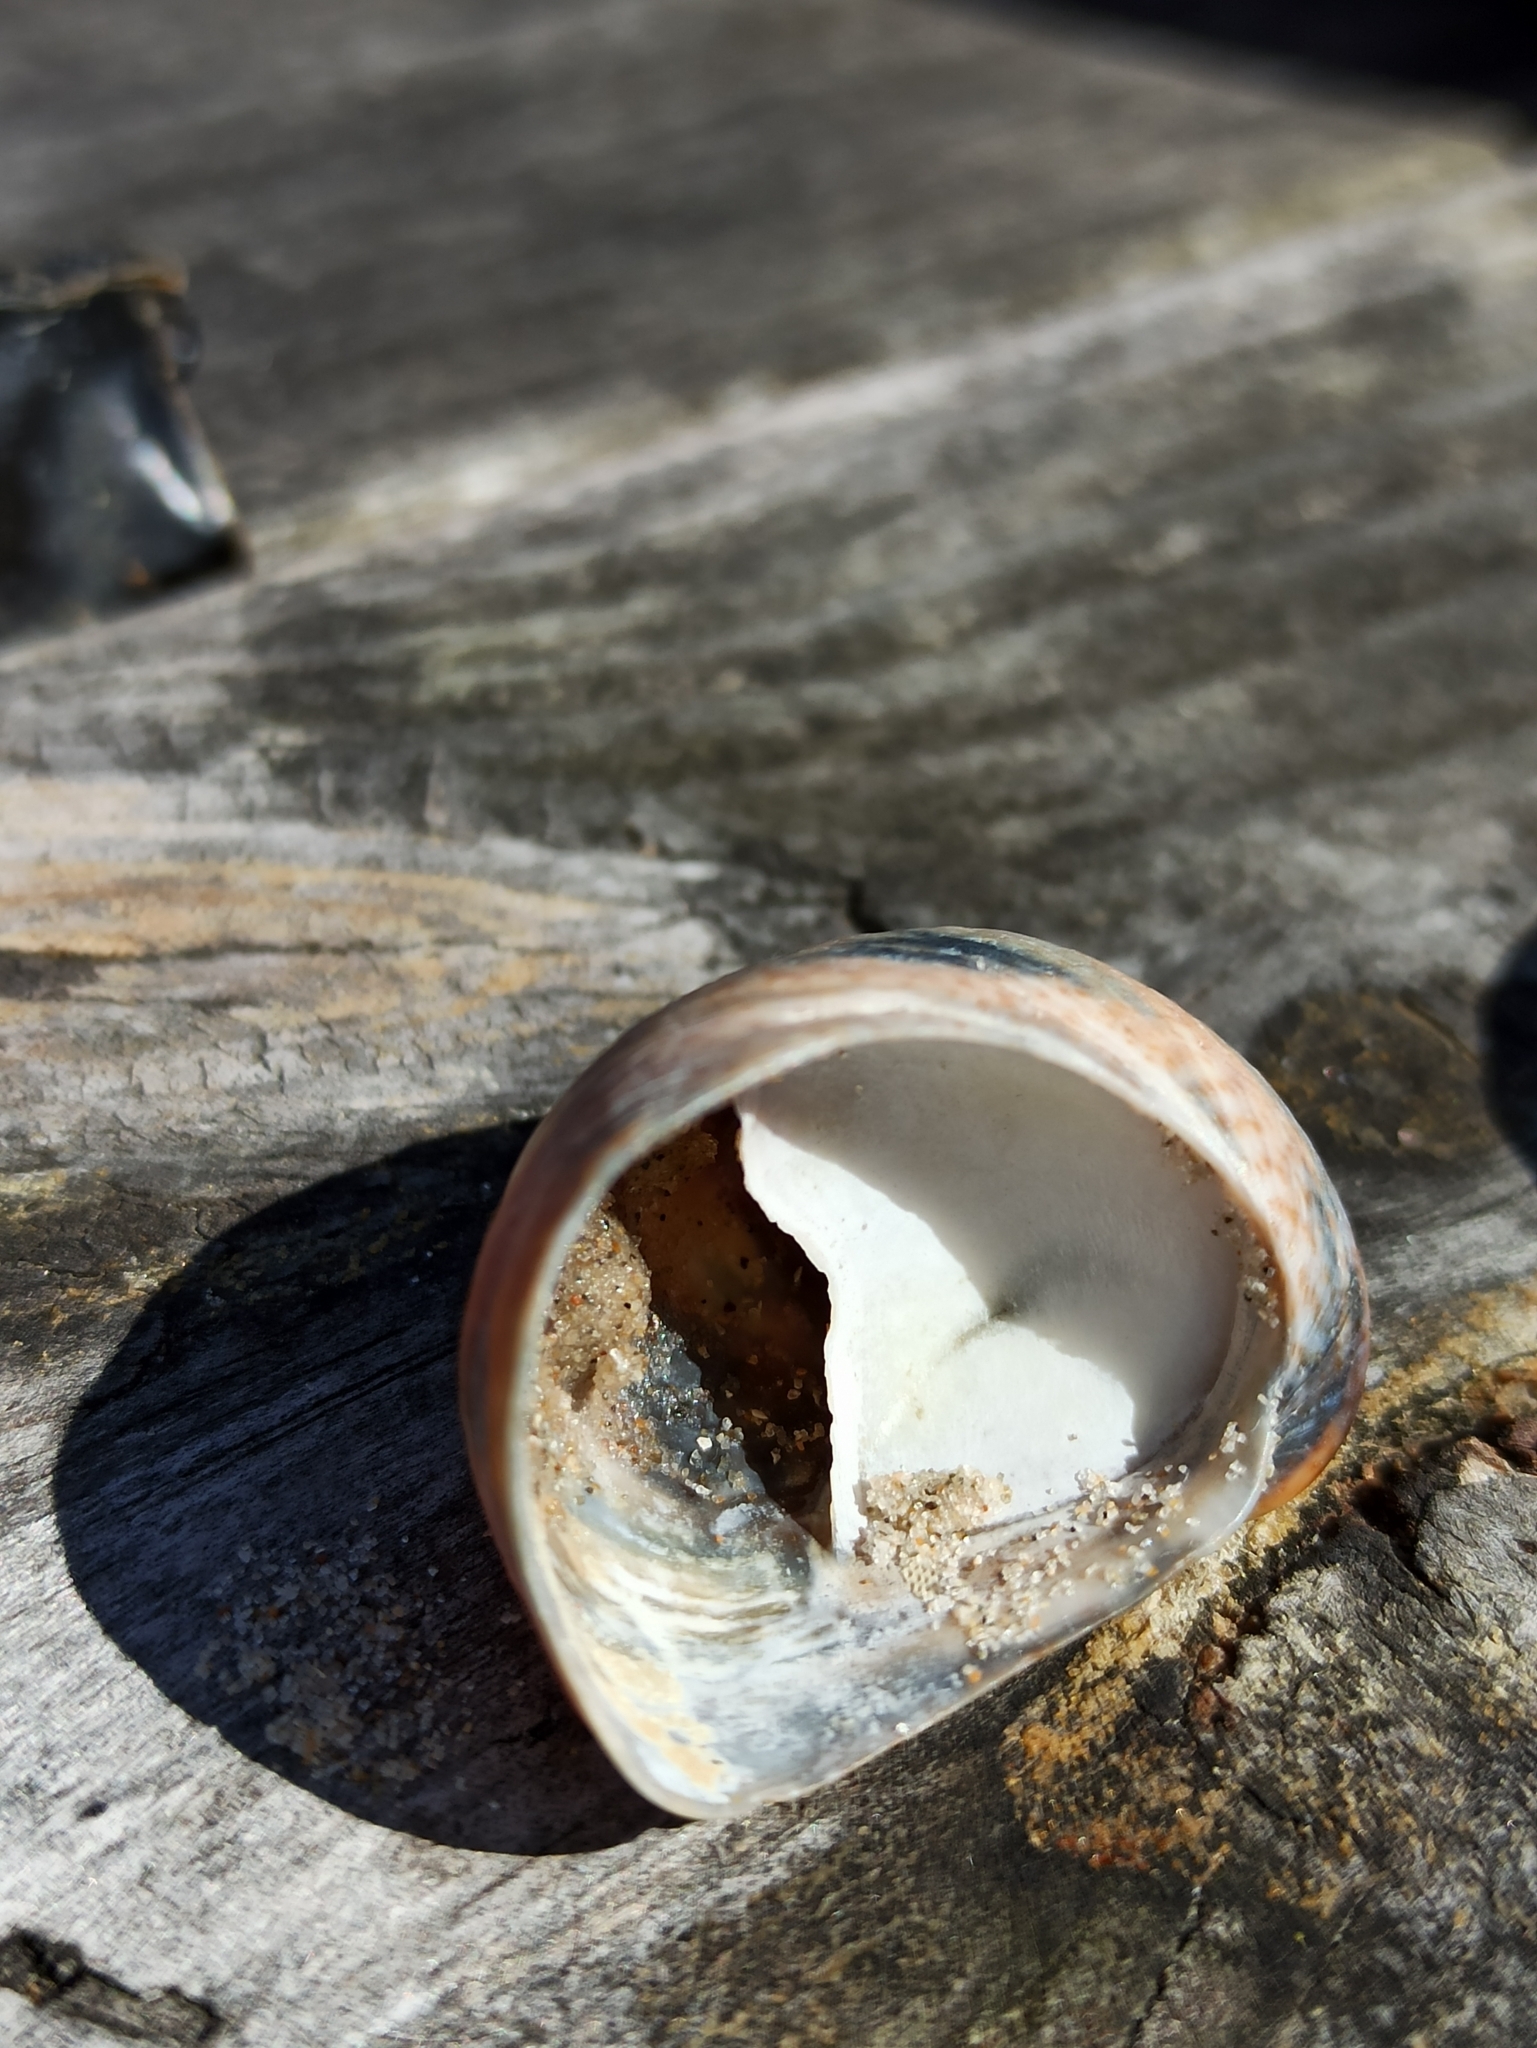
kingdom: Animalia
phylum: Mollusca
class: Gastropoda
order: Littorinimorpha
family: Calyptraeidae
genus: Crepidula
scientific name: Crepidula fornicata
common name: Slipper limpet
